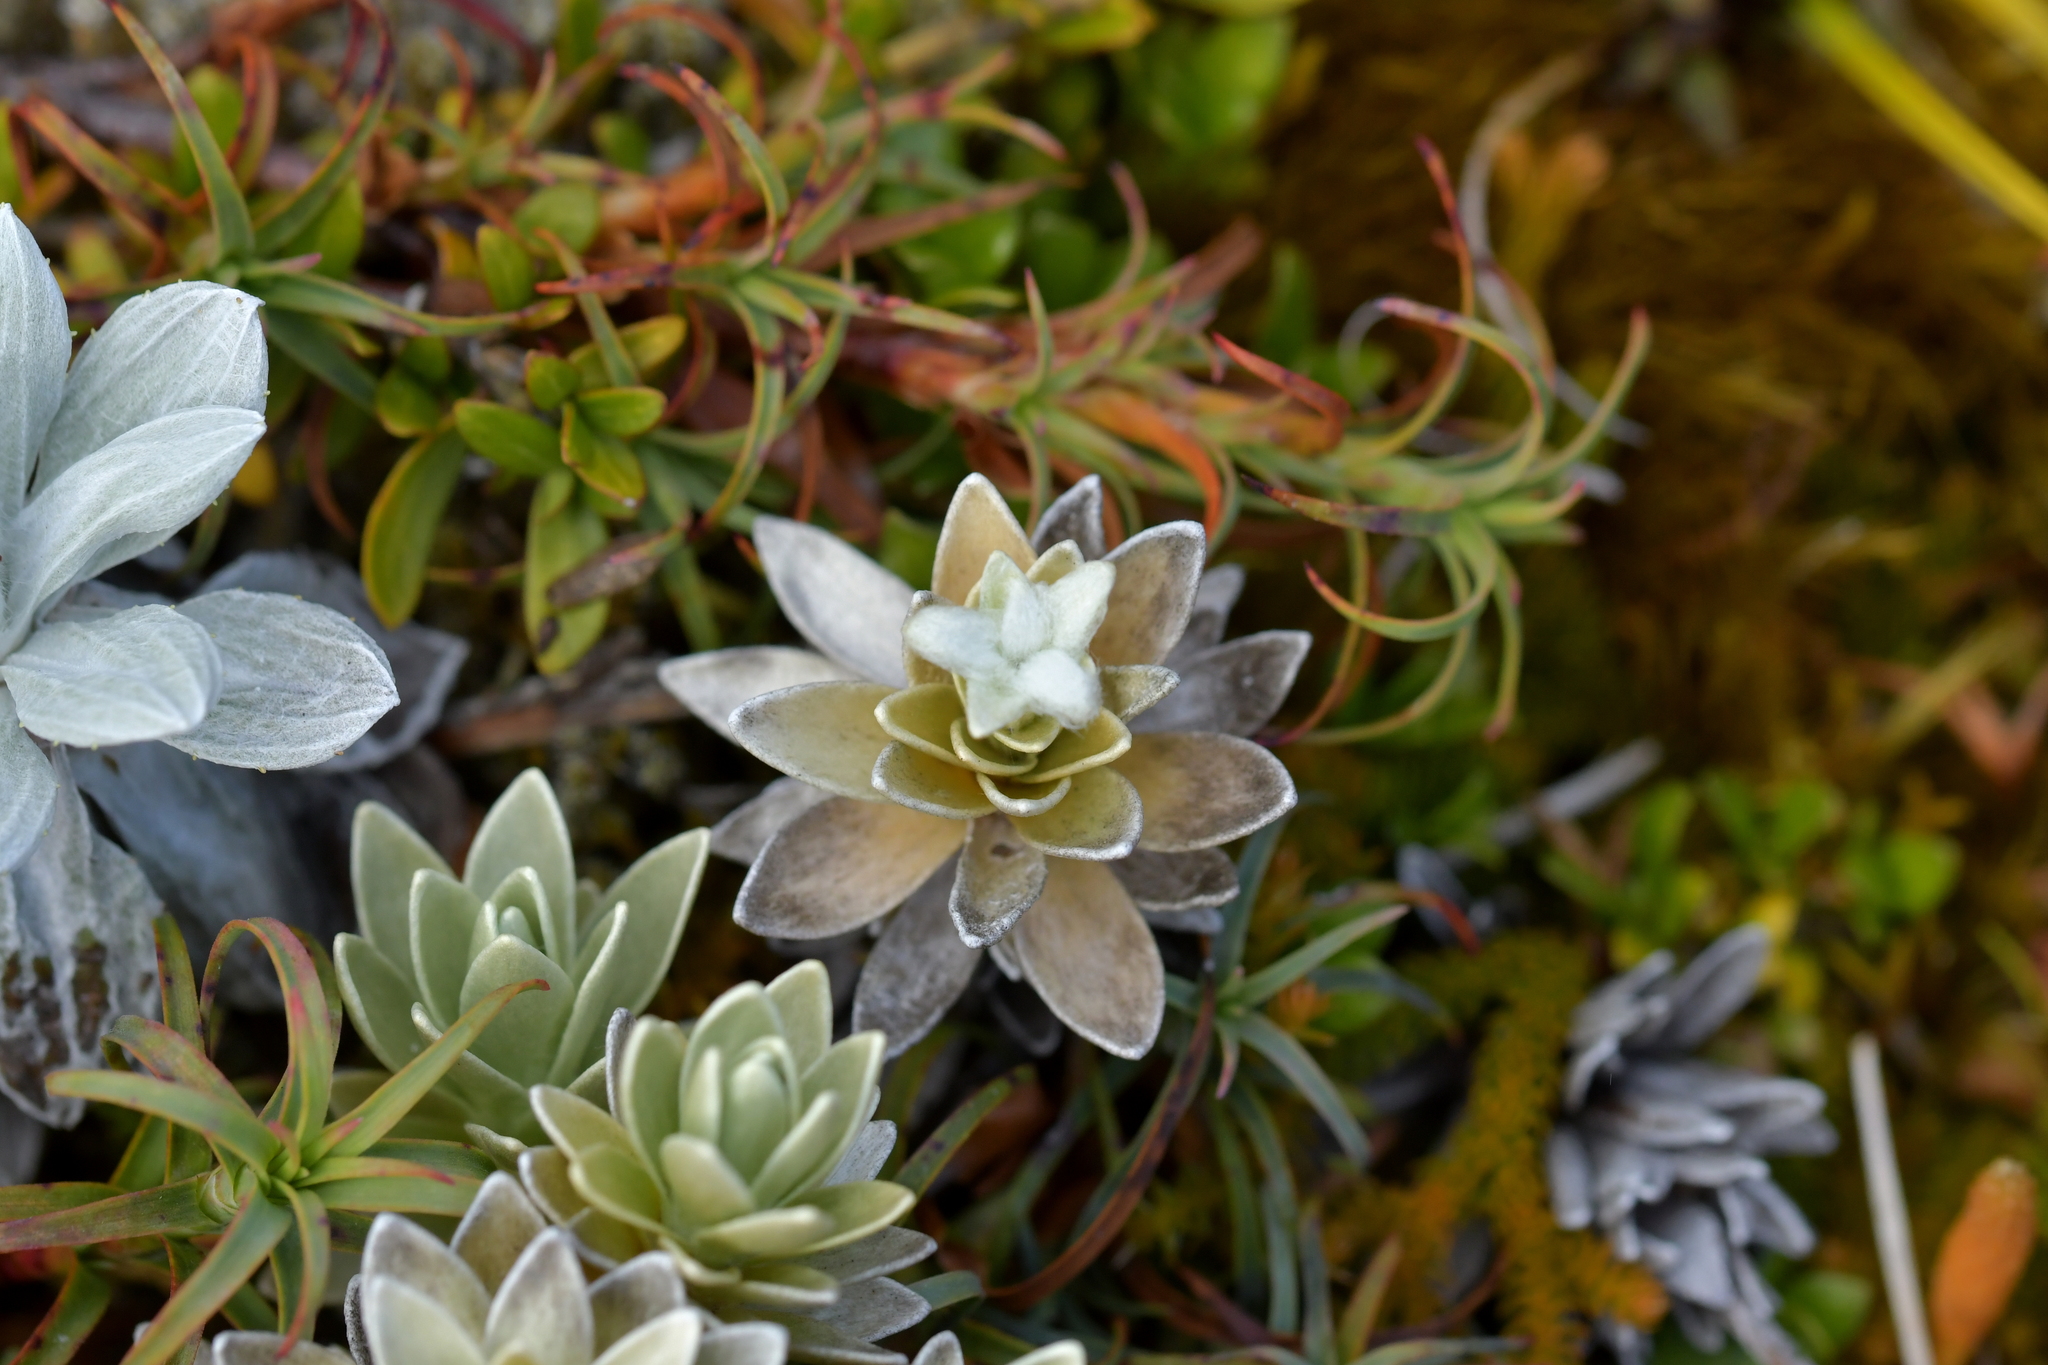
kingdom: Plantae
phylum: Tracheophyta
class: Magnoliopsida
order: Asterales
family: Asteraceae
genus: Leucogenes
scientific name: Leucogenes leontopodium
